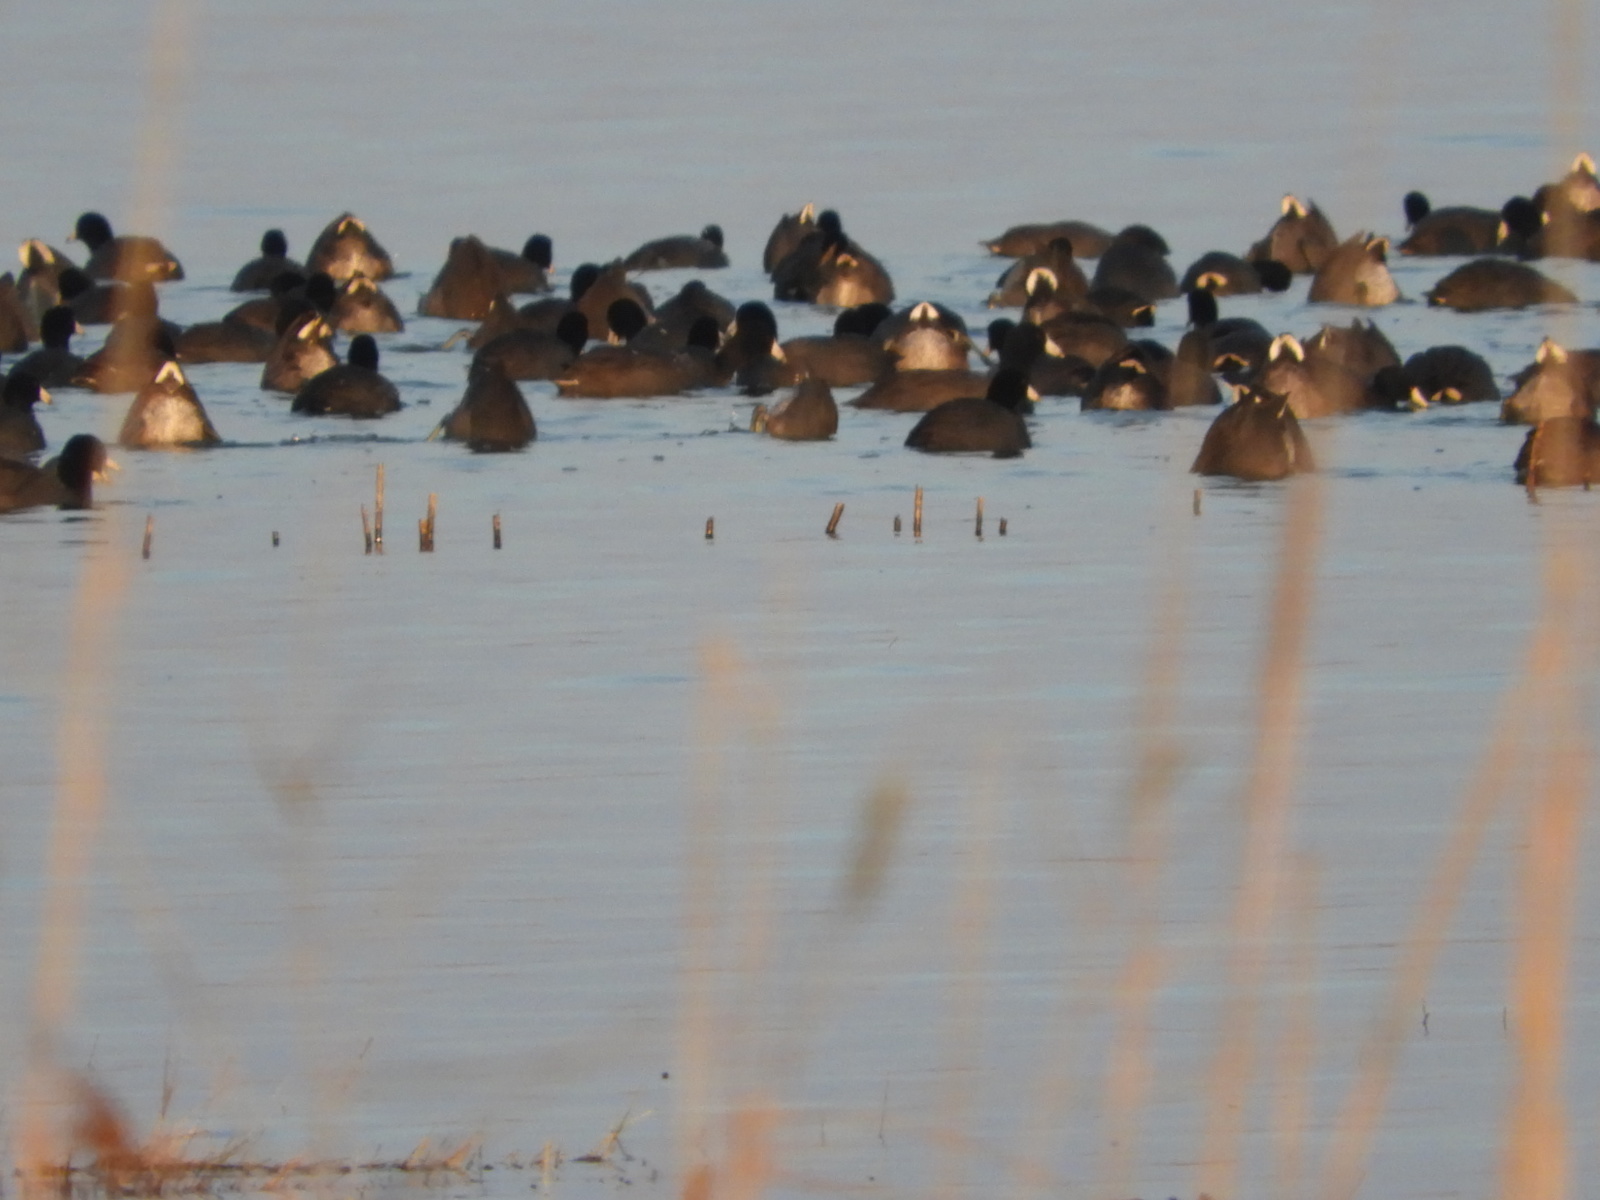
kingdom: Animalia
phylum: Chordata
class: Aves
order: Gruiformes
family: Rallidae
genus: Fulica
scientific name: Fulica americana
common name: American coot
